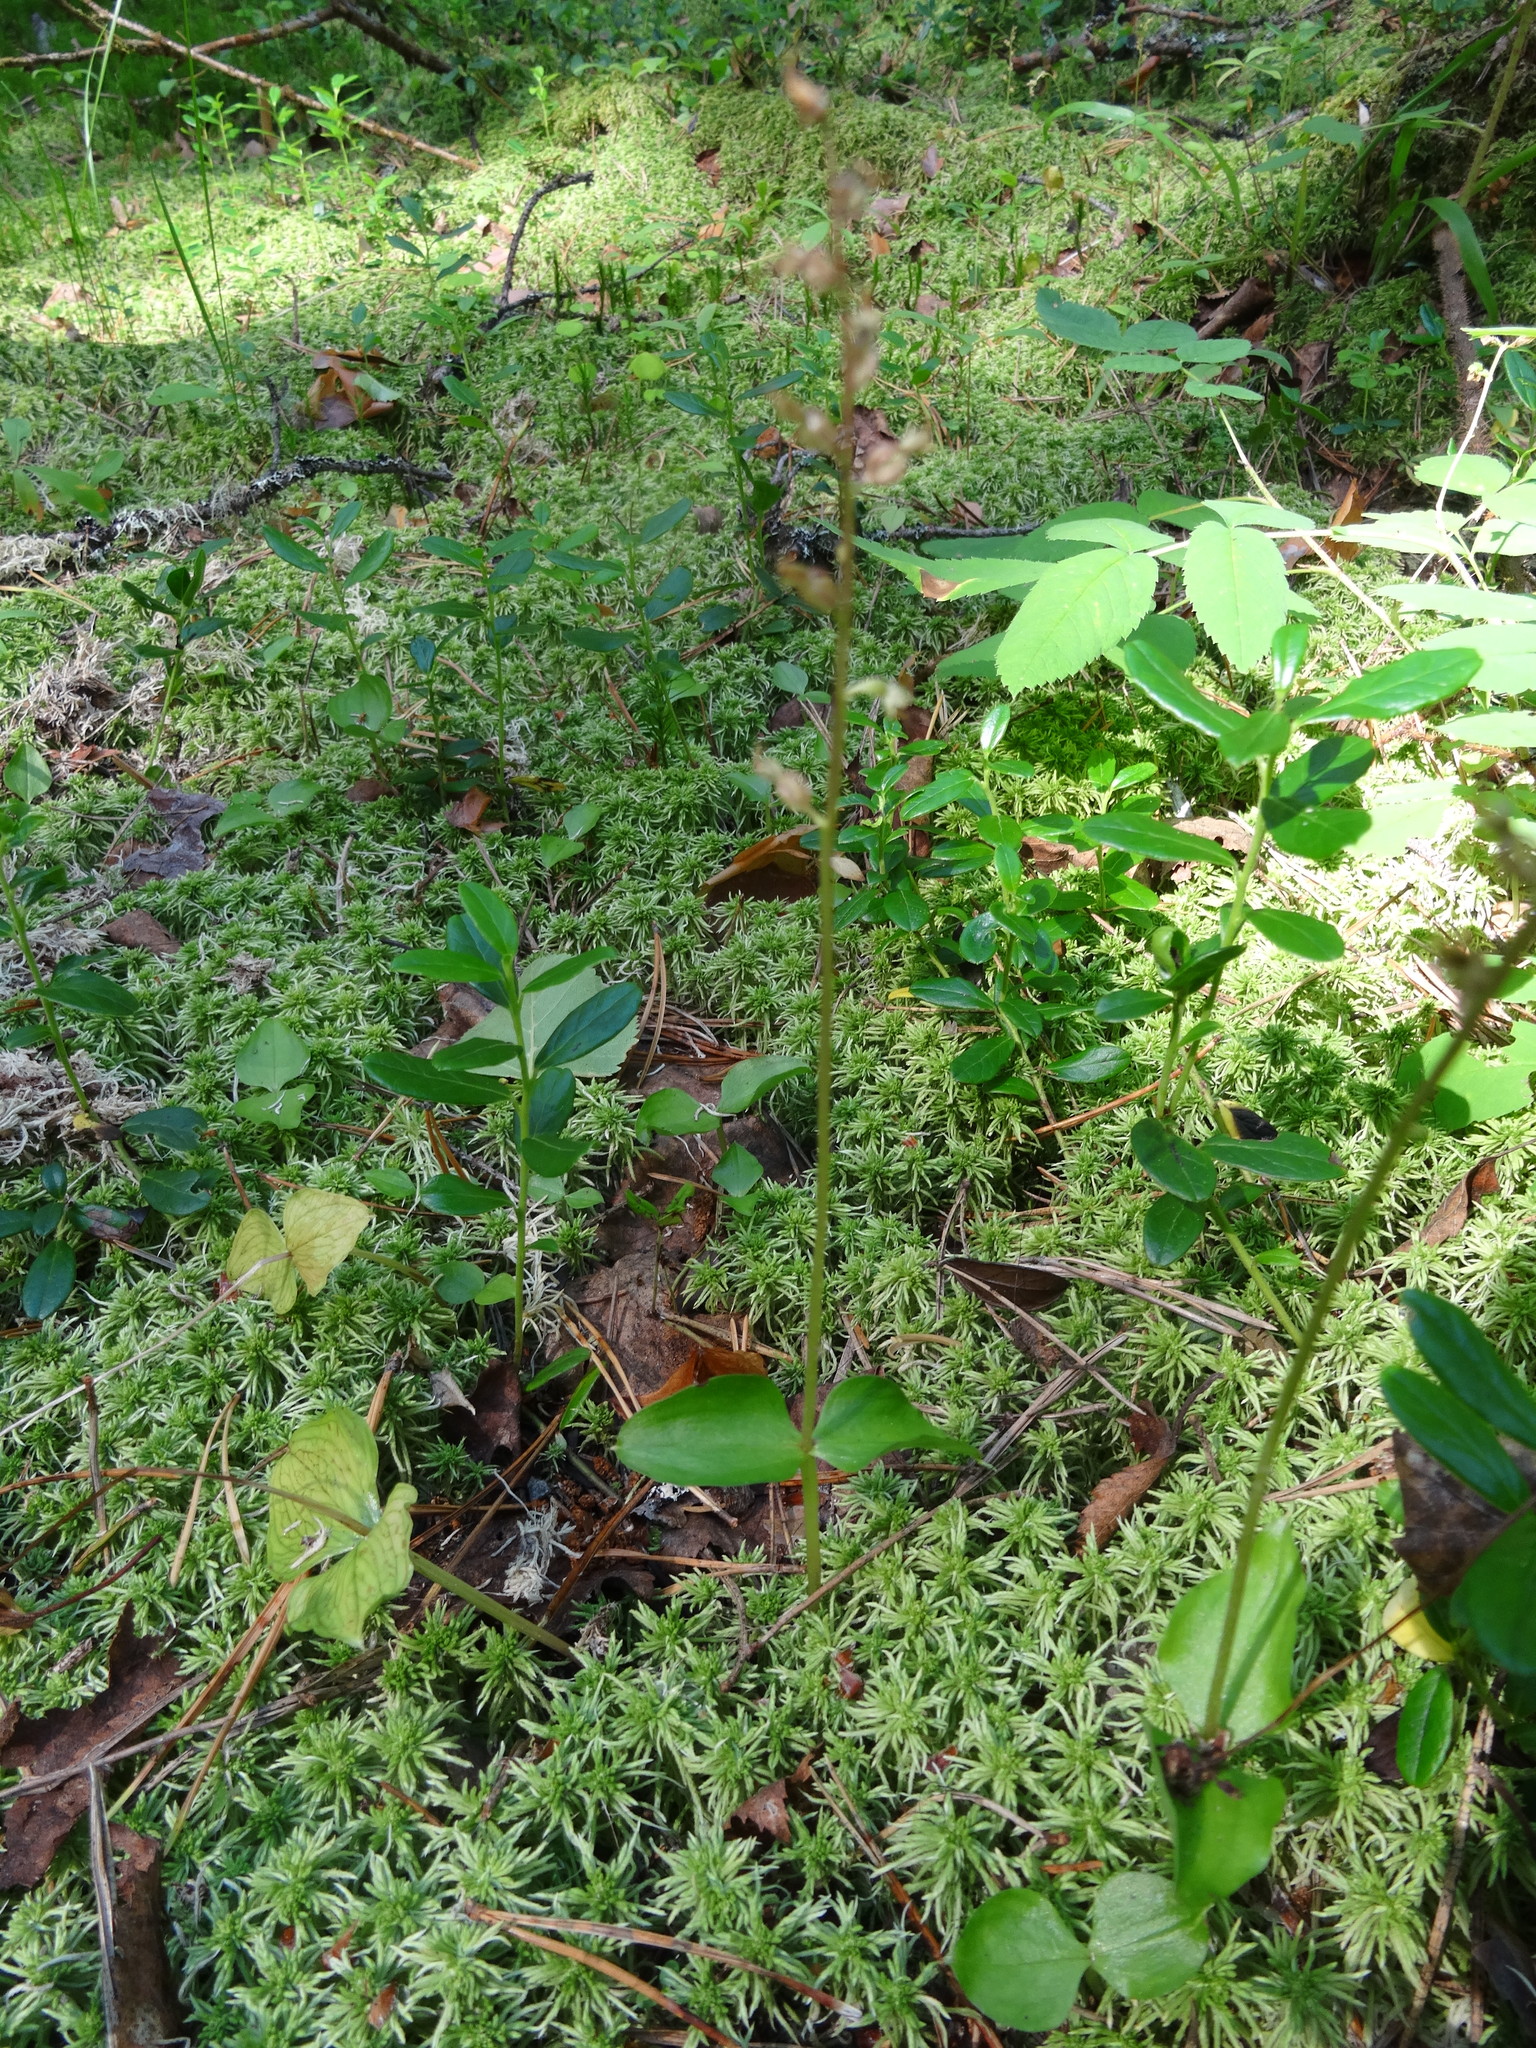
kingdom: Plantae
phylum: Tracheophyta
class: Liliopsida
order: Asparagales
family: Orchidaceae
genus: Neottia
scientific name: Neottia cordata
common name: Lesser twayblade
